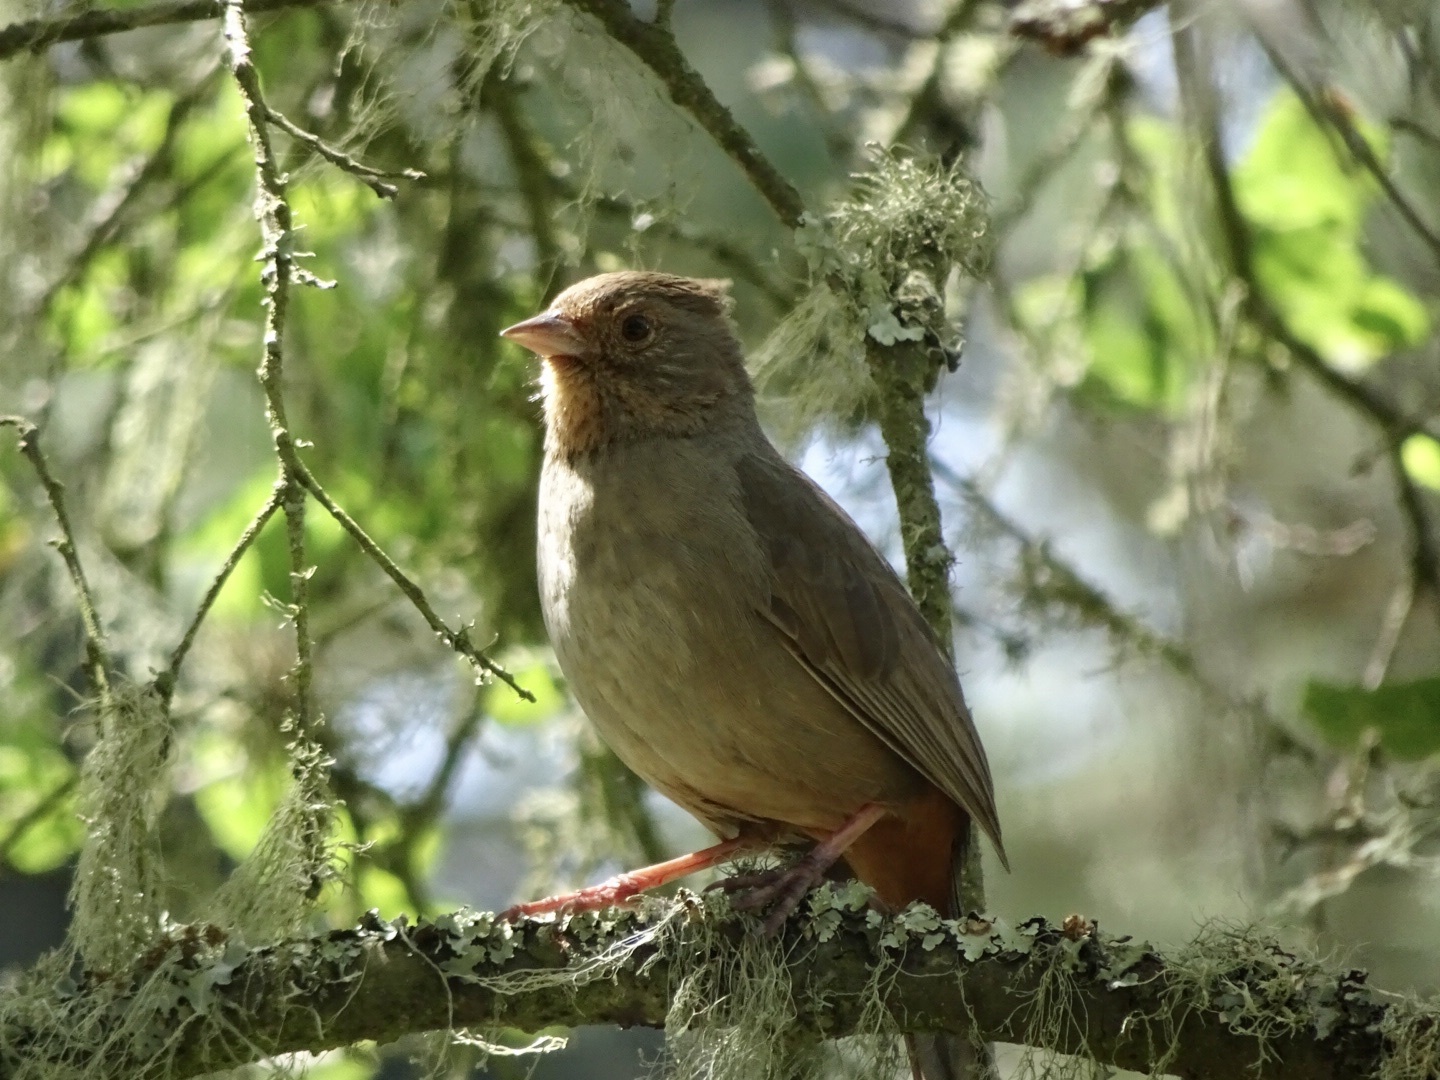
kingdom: Animalia
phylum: Chordata
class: Aves
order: Passeriformes
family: Passerellidae
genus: Melozone
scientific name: Melozone crissalis
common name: California towhee
